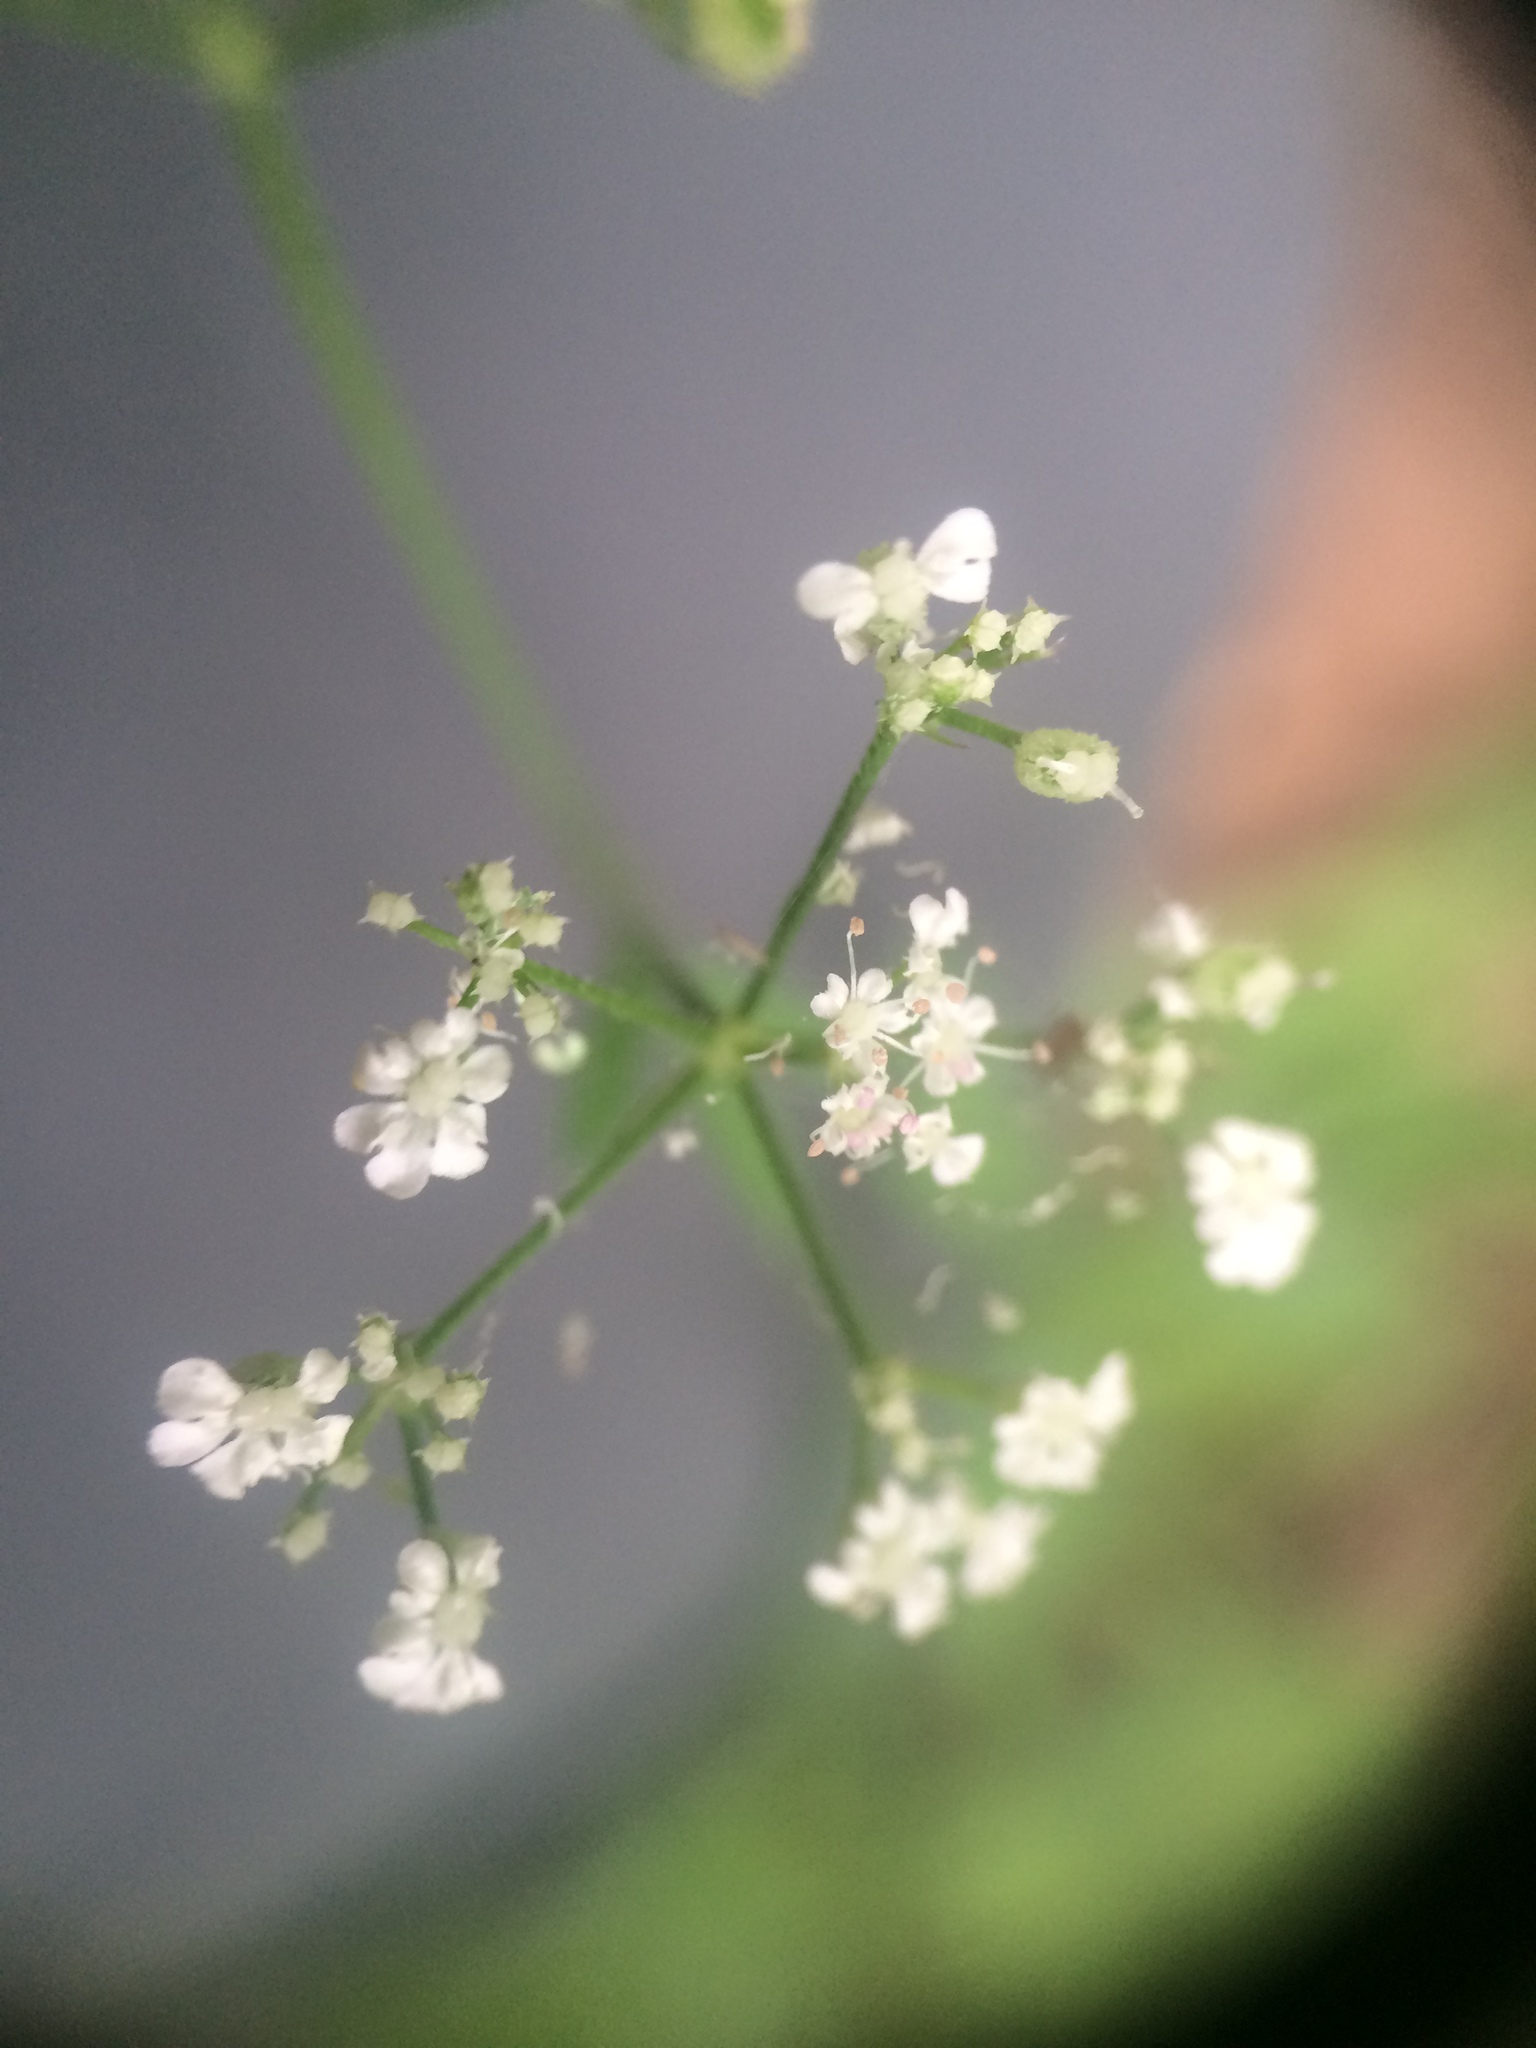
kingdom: Plantae
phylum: Tracheophyta
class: Magnoliopsida
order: Apiales
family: Apiaceae
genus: Torilis
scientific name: Torilis japonica
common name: Upright hedge-parsley
